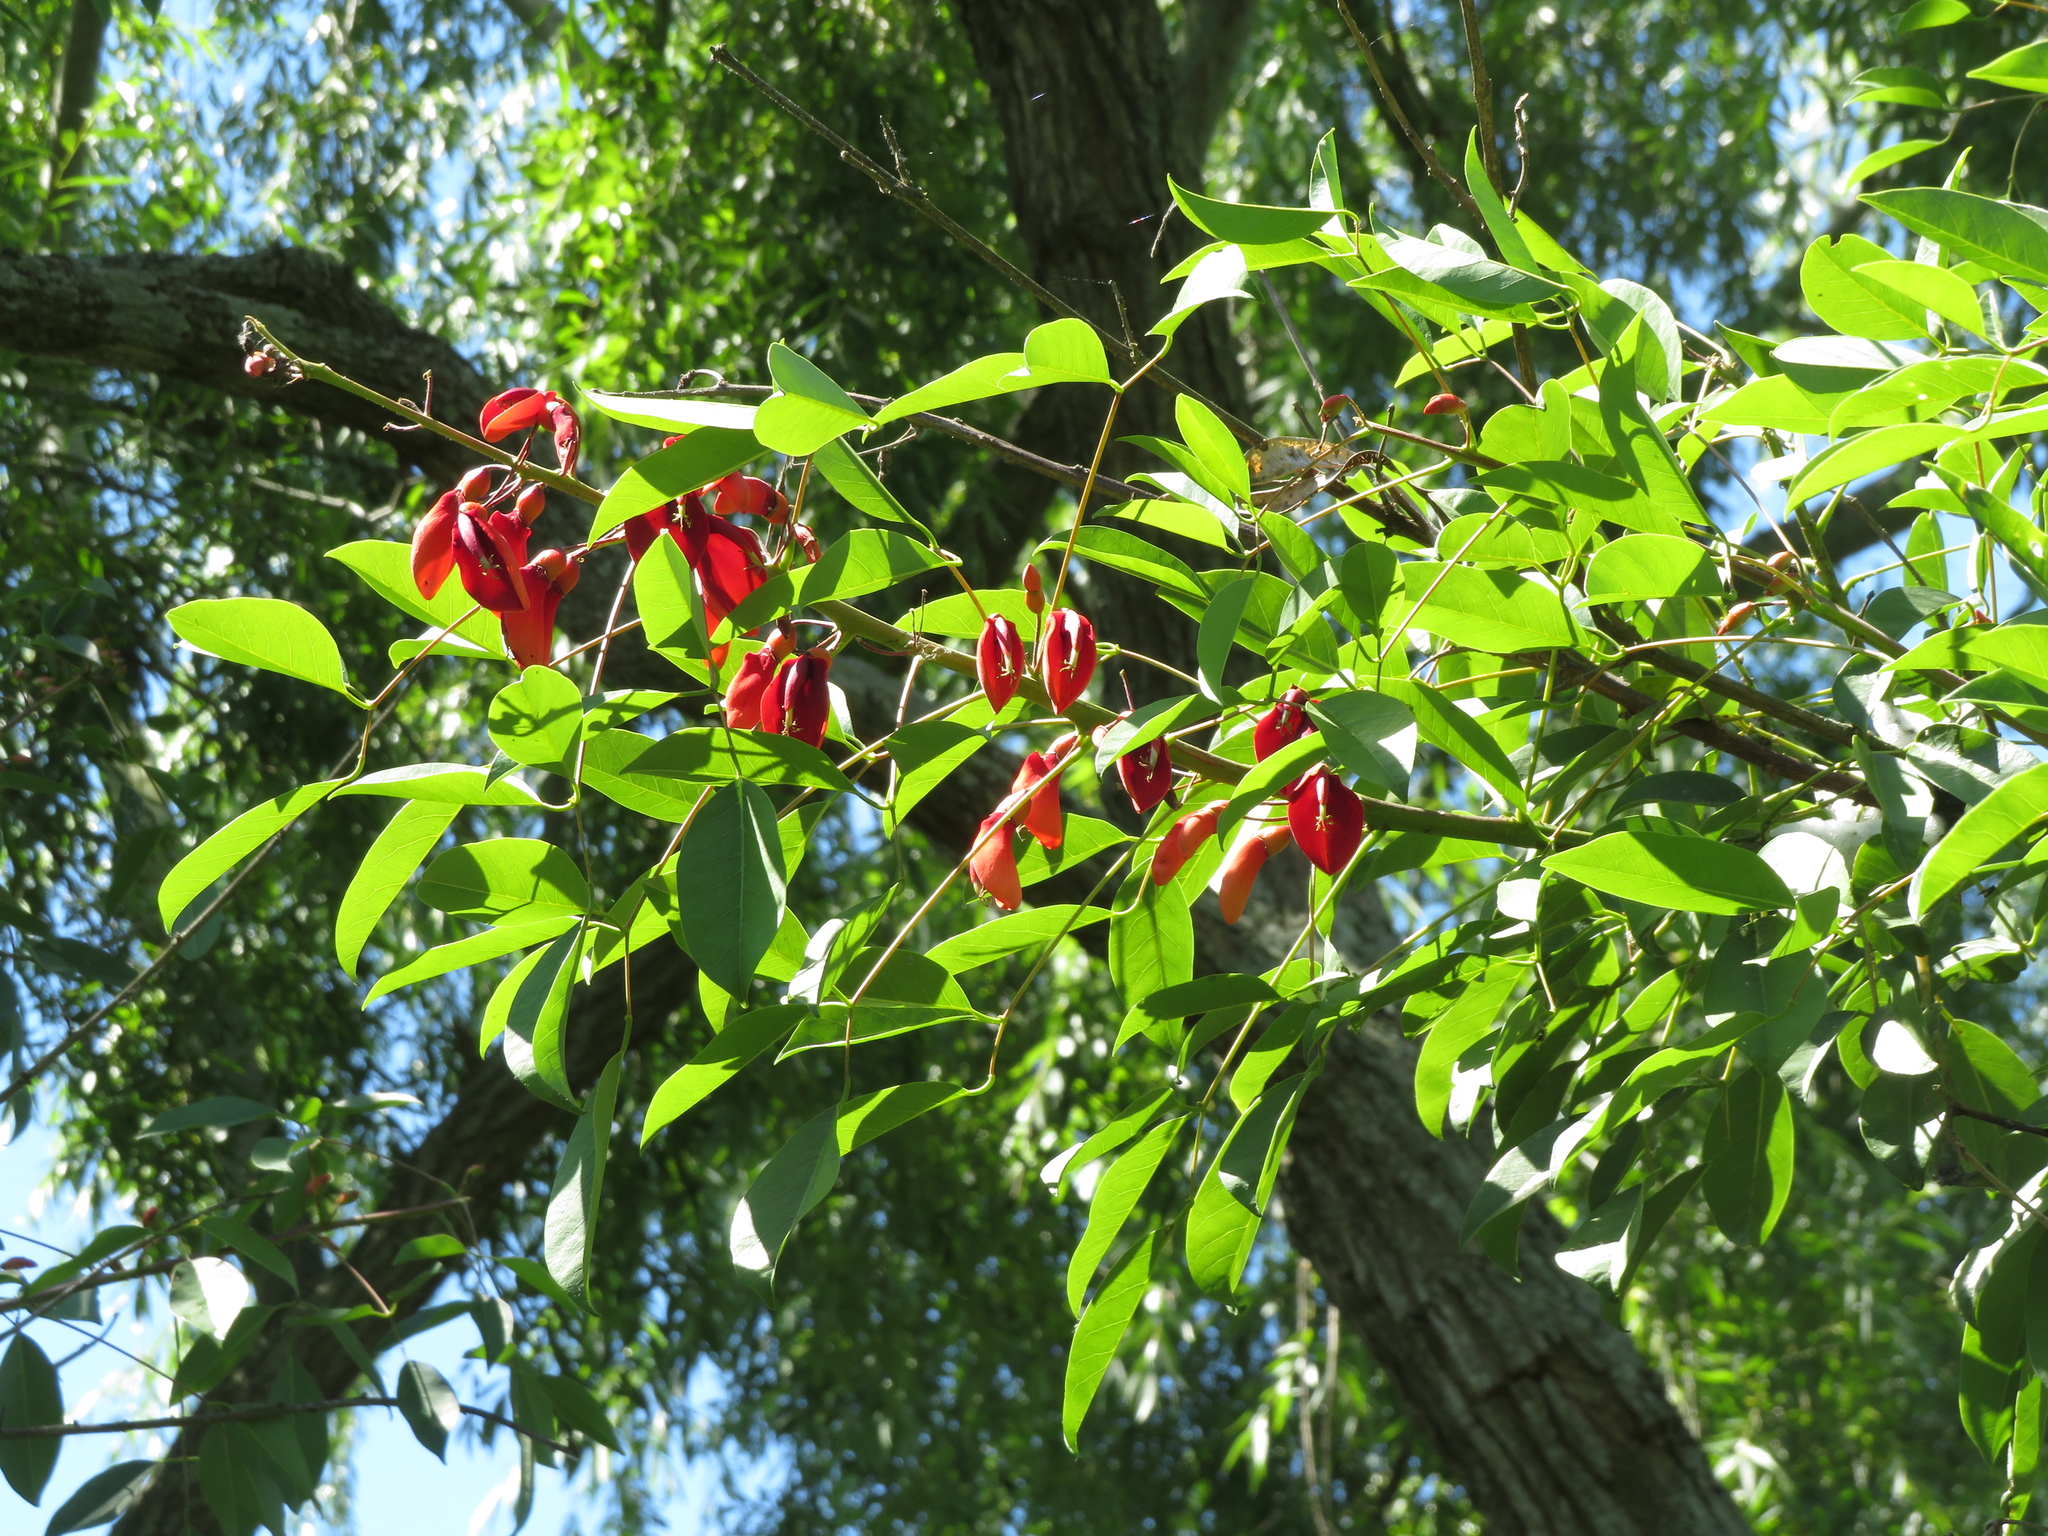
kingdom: Plantae
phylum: Tracheophyta
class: Magnoliopsida
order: Fabales
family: Fabaceae
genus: Erythrina
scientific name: Erythrina crista-galli
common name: Cockspur coral tree
